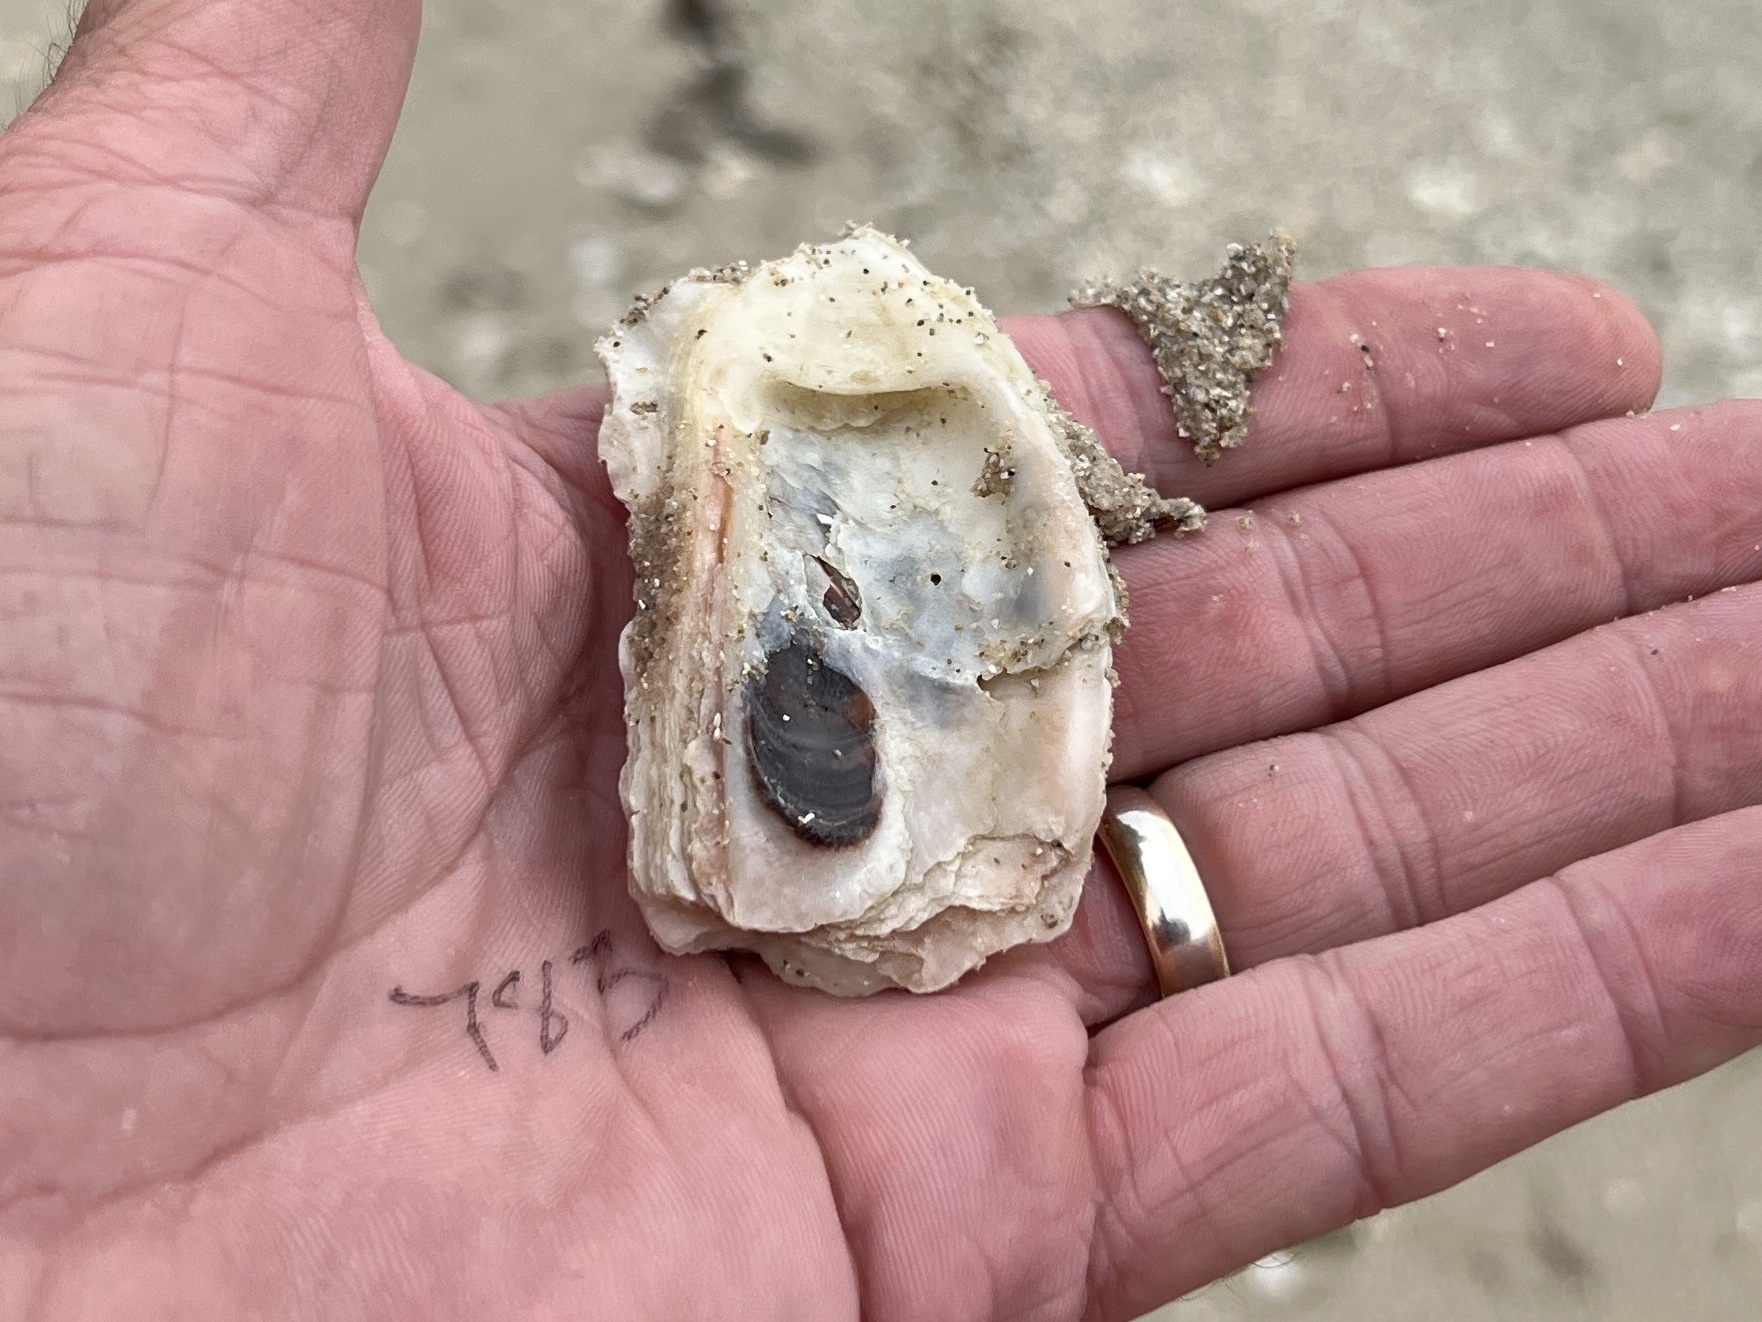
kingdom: Animalia
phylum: Mollusca
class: Bivalvia
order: Ostreida
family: Ostreidae
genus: Crassostrea
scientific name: Crassostrea virginica
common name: American oyster
